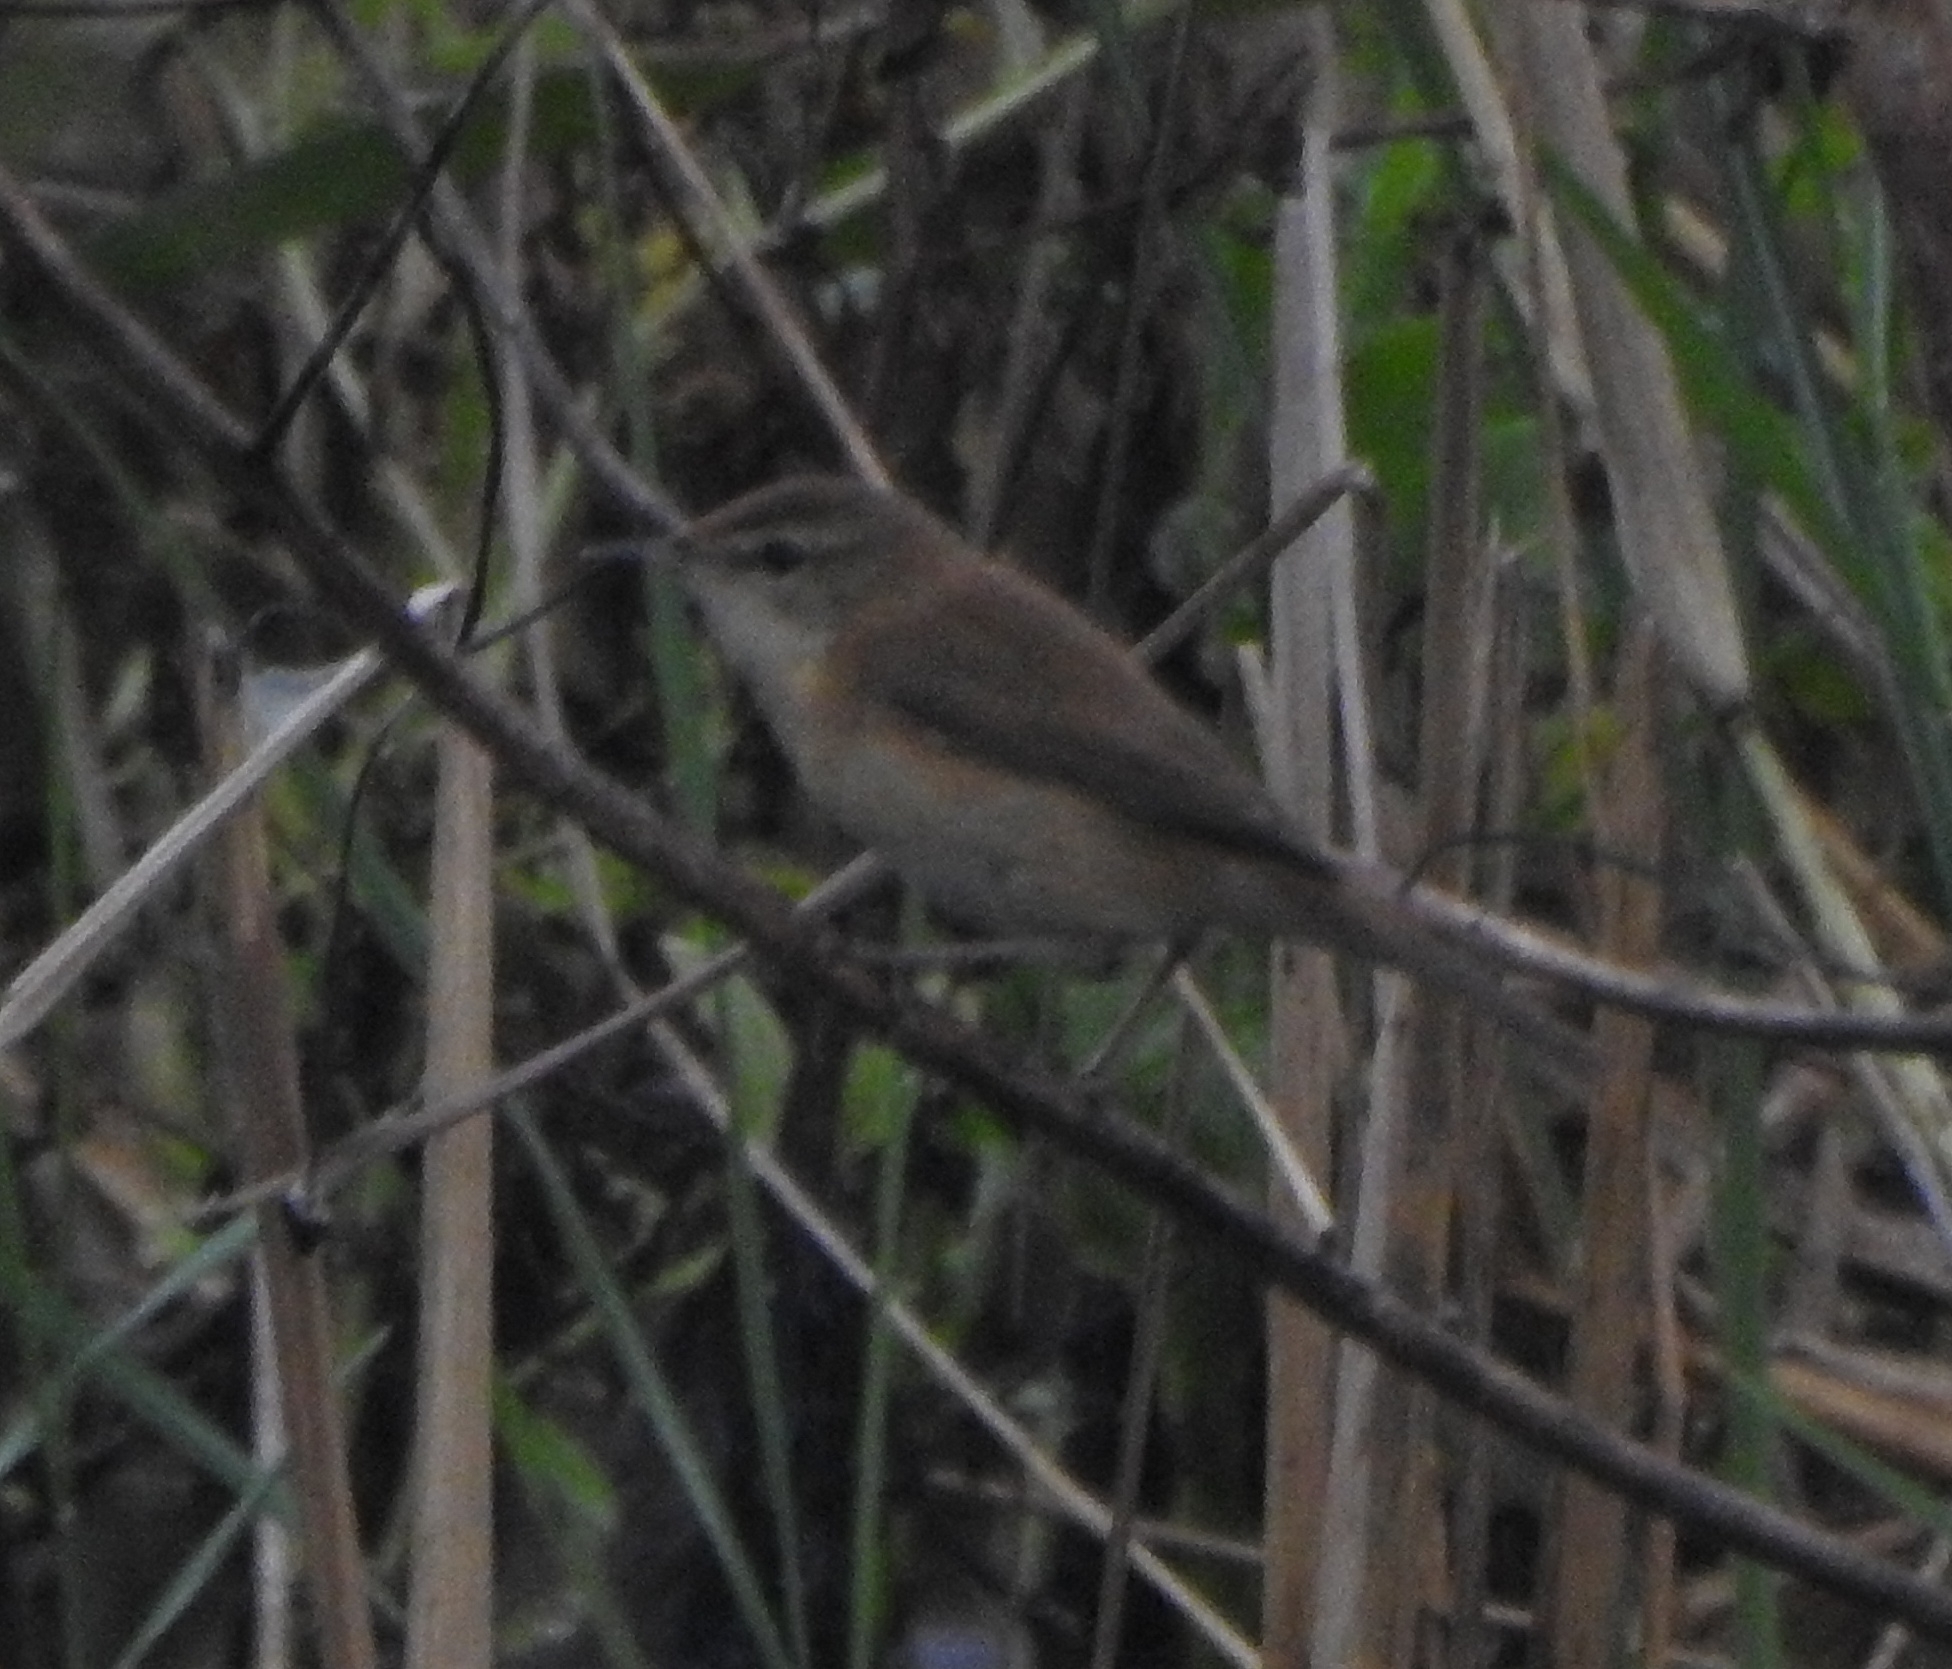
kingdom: Animalia
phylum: Chordata
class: Aves
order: Passeriformes
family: Acrocephalidae
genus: Acrocephalus
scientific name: Acrocephalus agricola
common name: Paddyfield warbler
